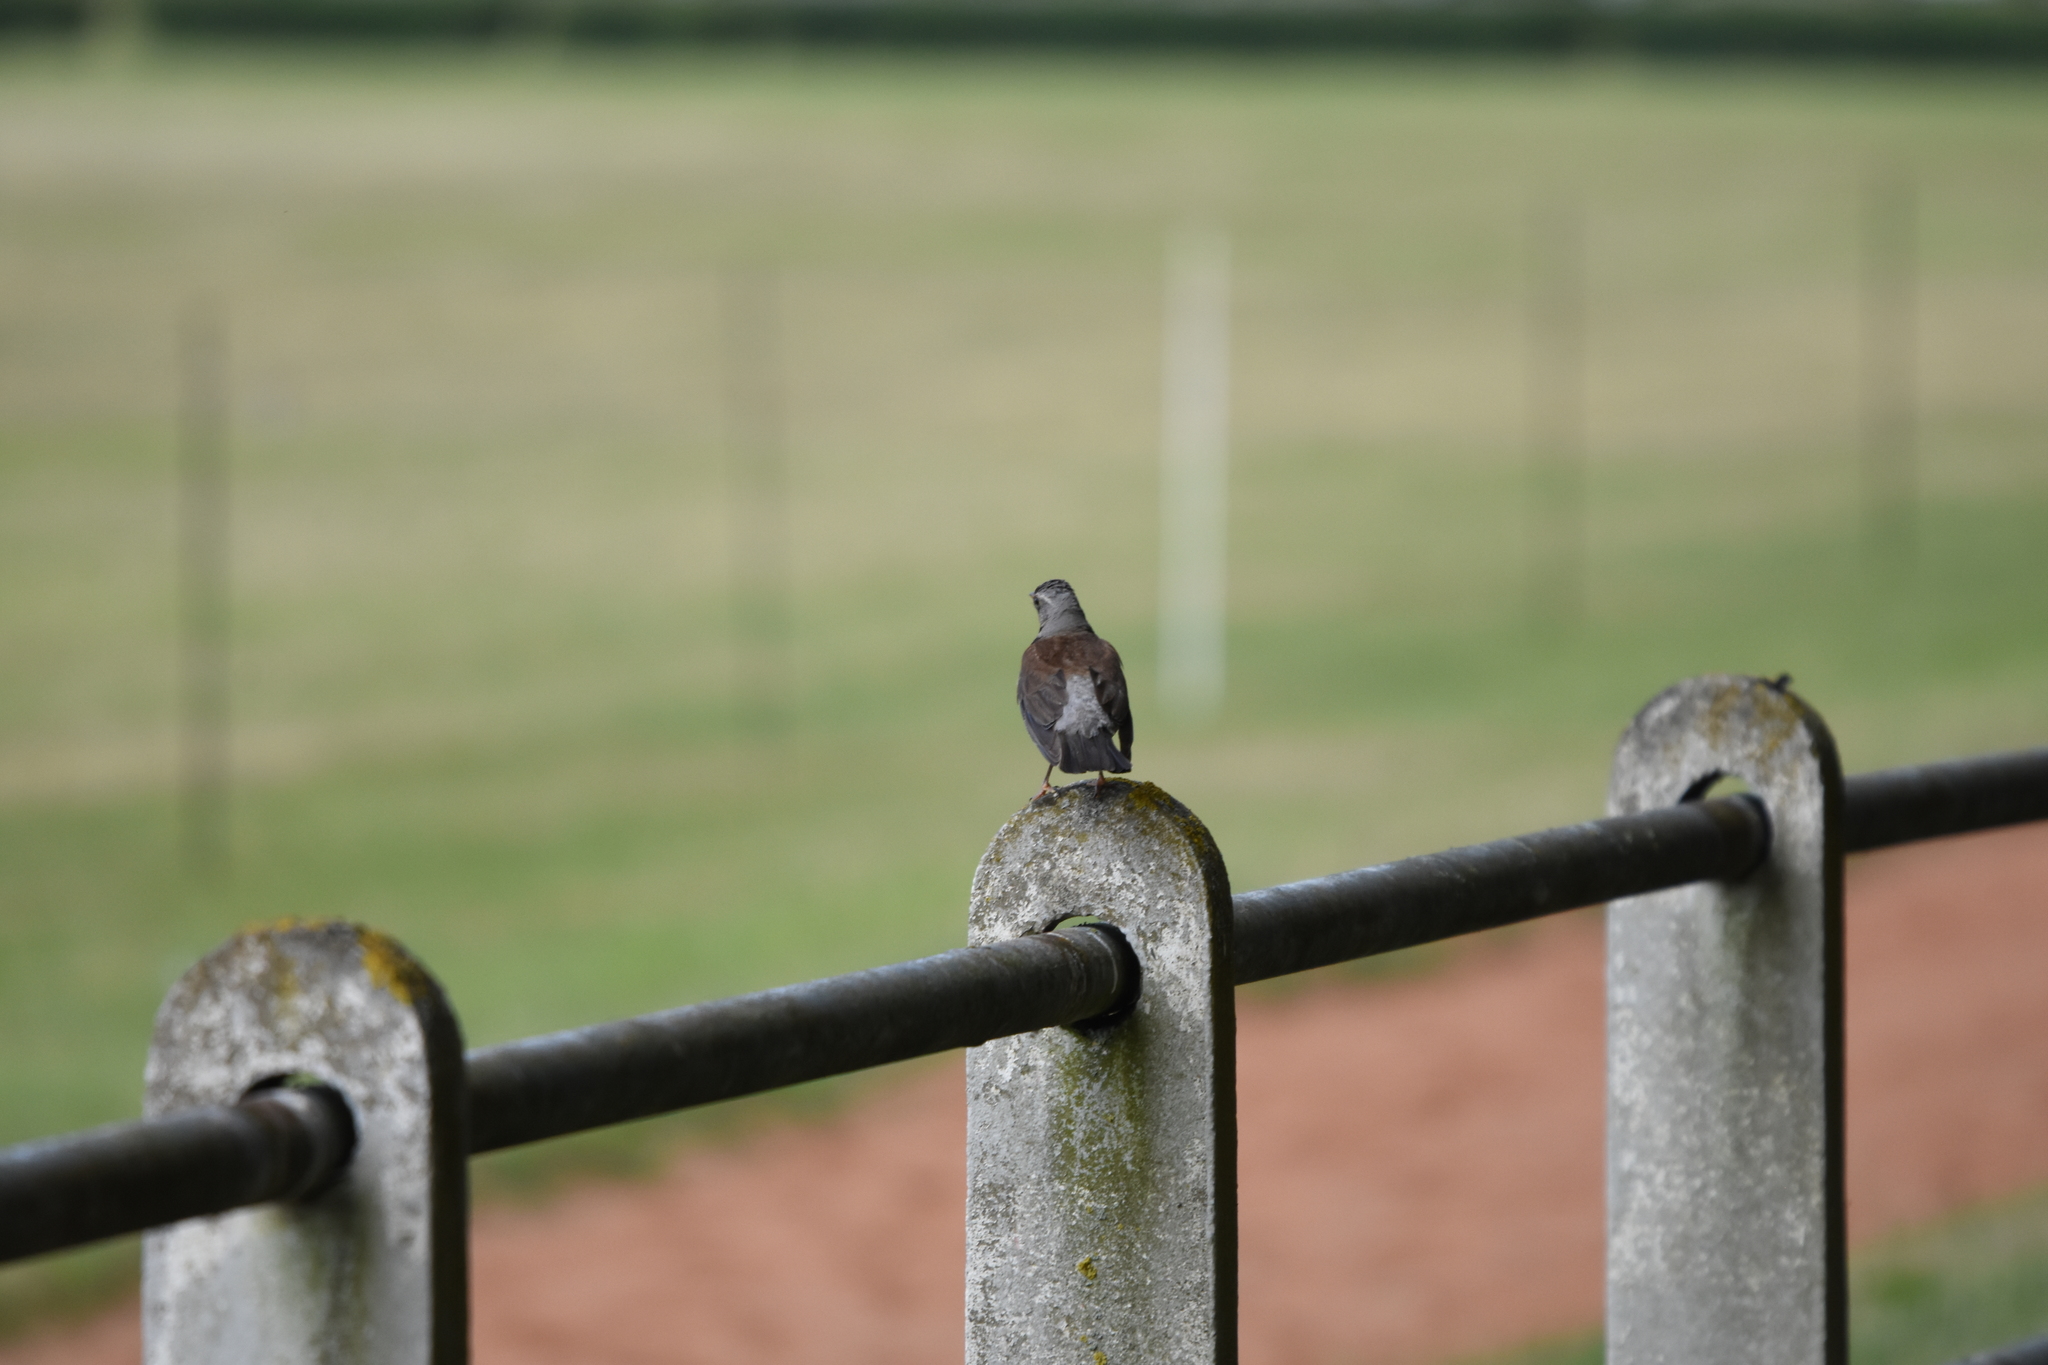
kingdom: Animalia
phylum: Chordata
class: Aves
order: Passeriformes
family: Turdidae
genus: Turdus
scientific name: Turdus pilaris
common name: Fieldfare
